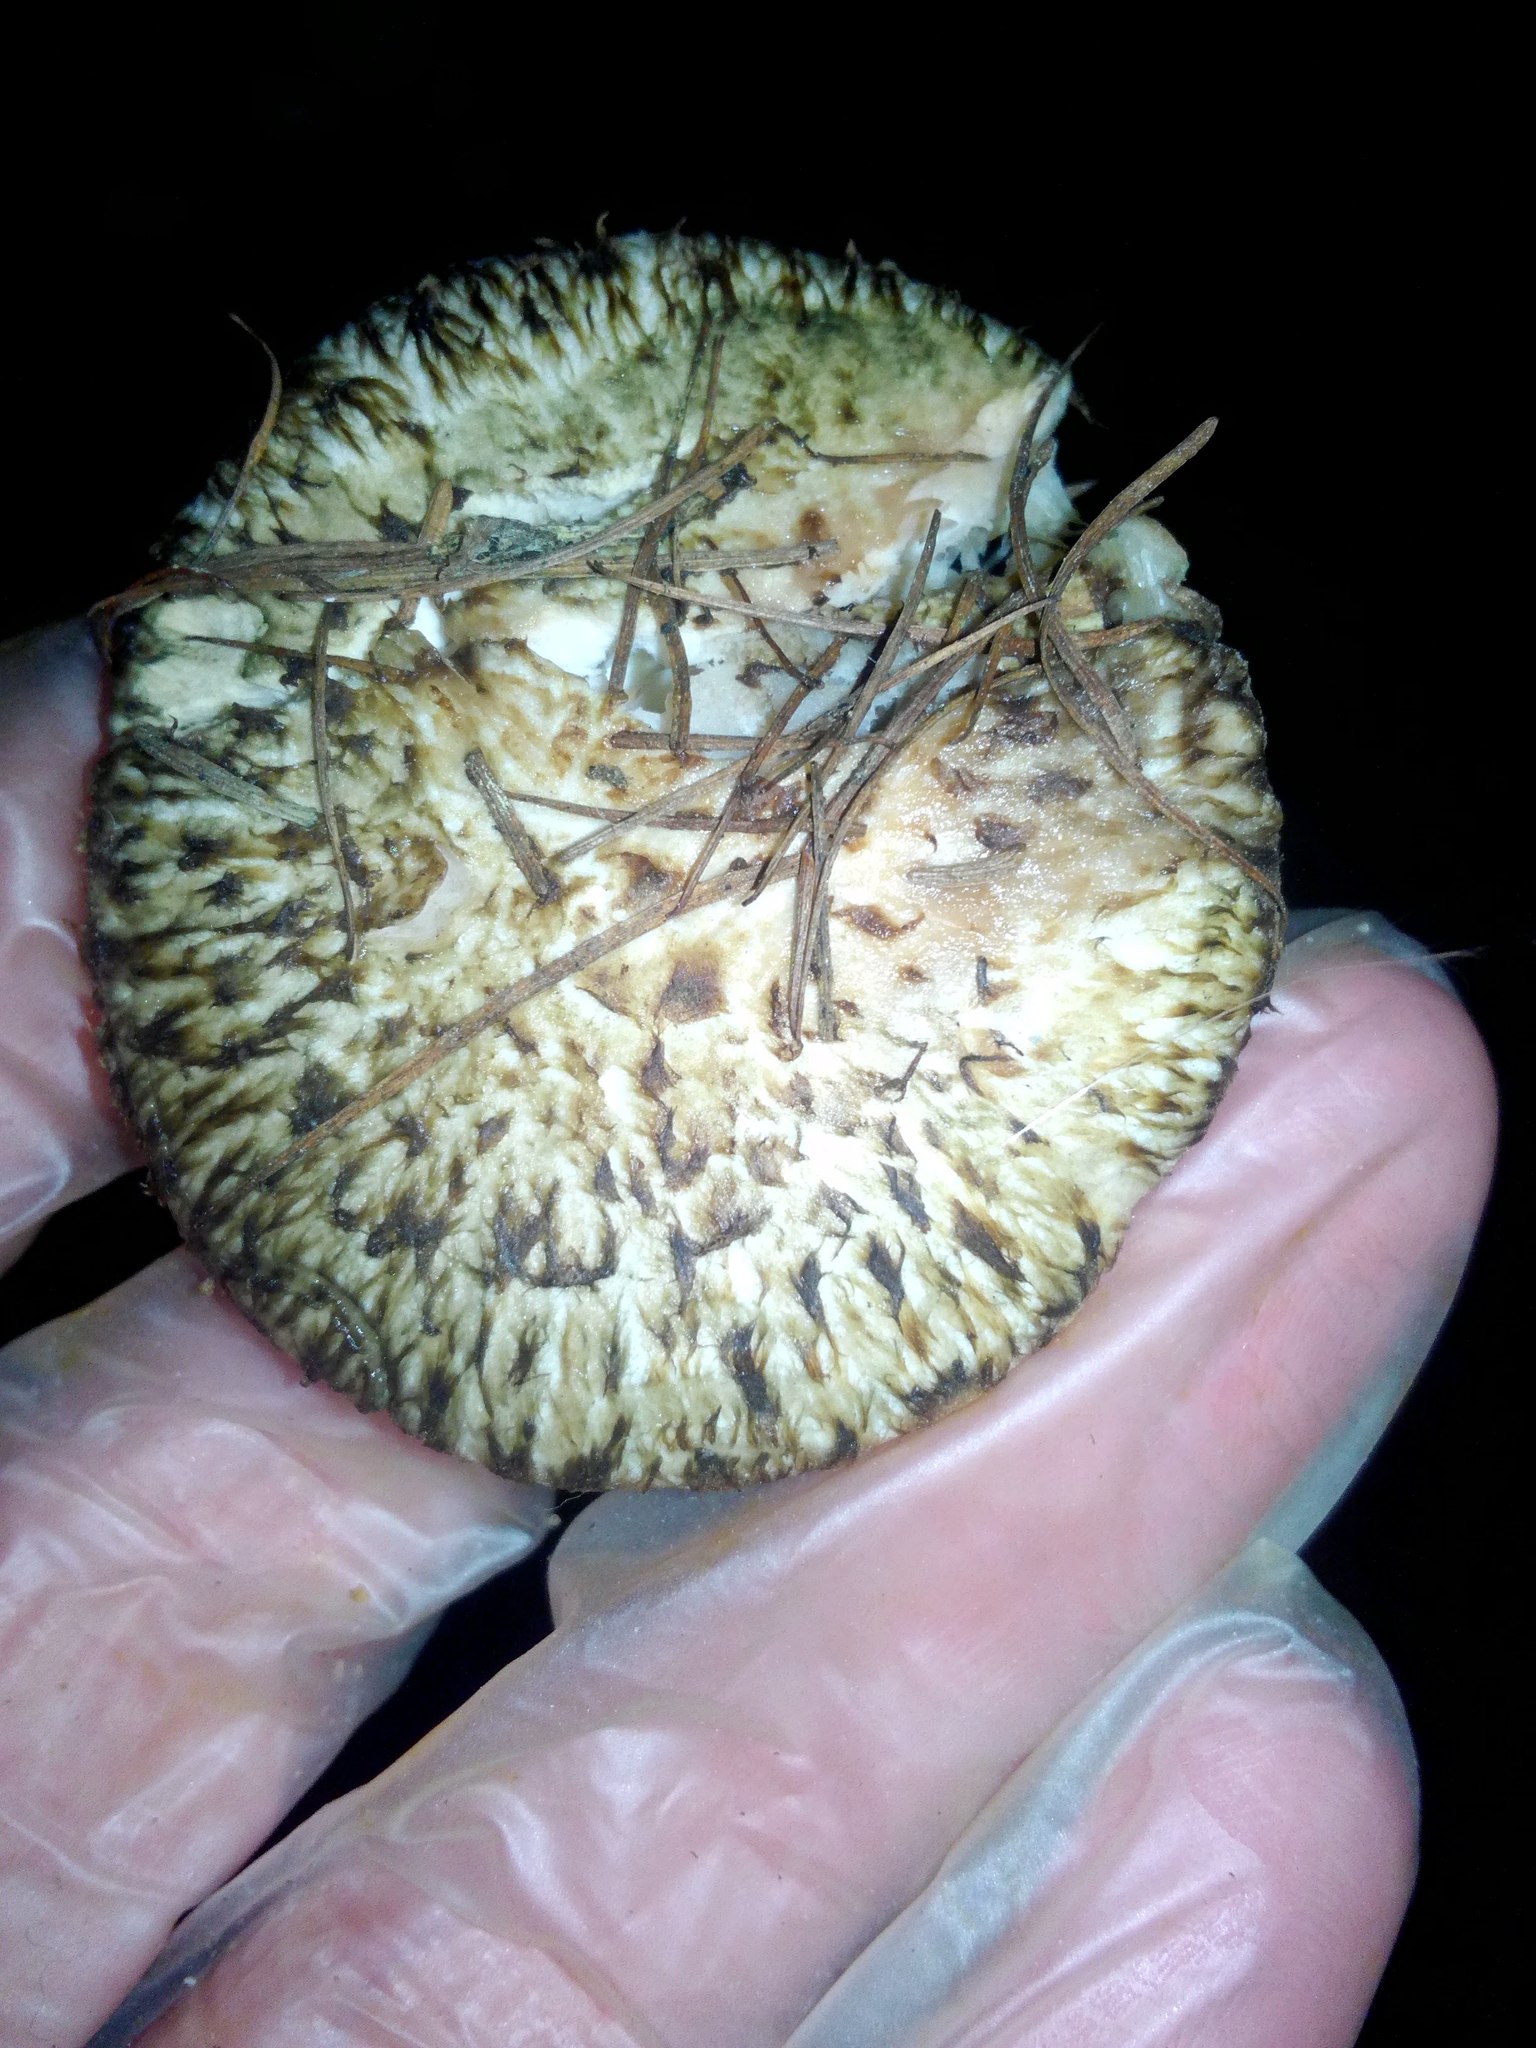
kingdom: Fungi
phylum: Basidiomycota
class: Agaricomycetes
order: Boletales
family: Suillaceae
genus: Suillus
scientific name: Suillus viscidus
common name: Sticky bolete
